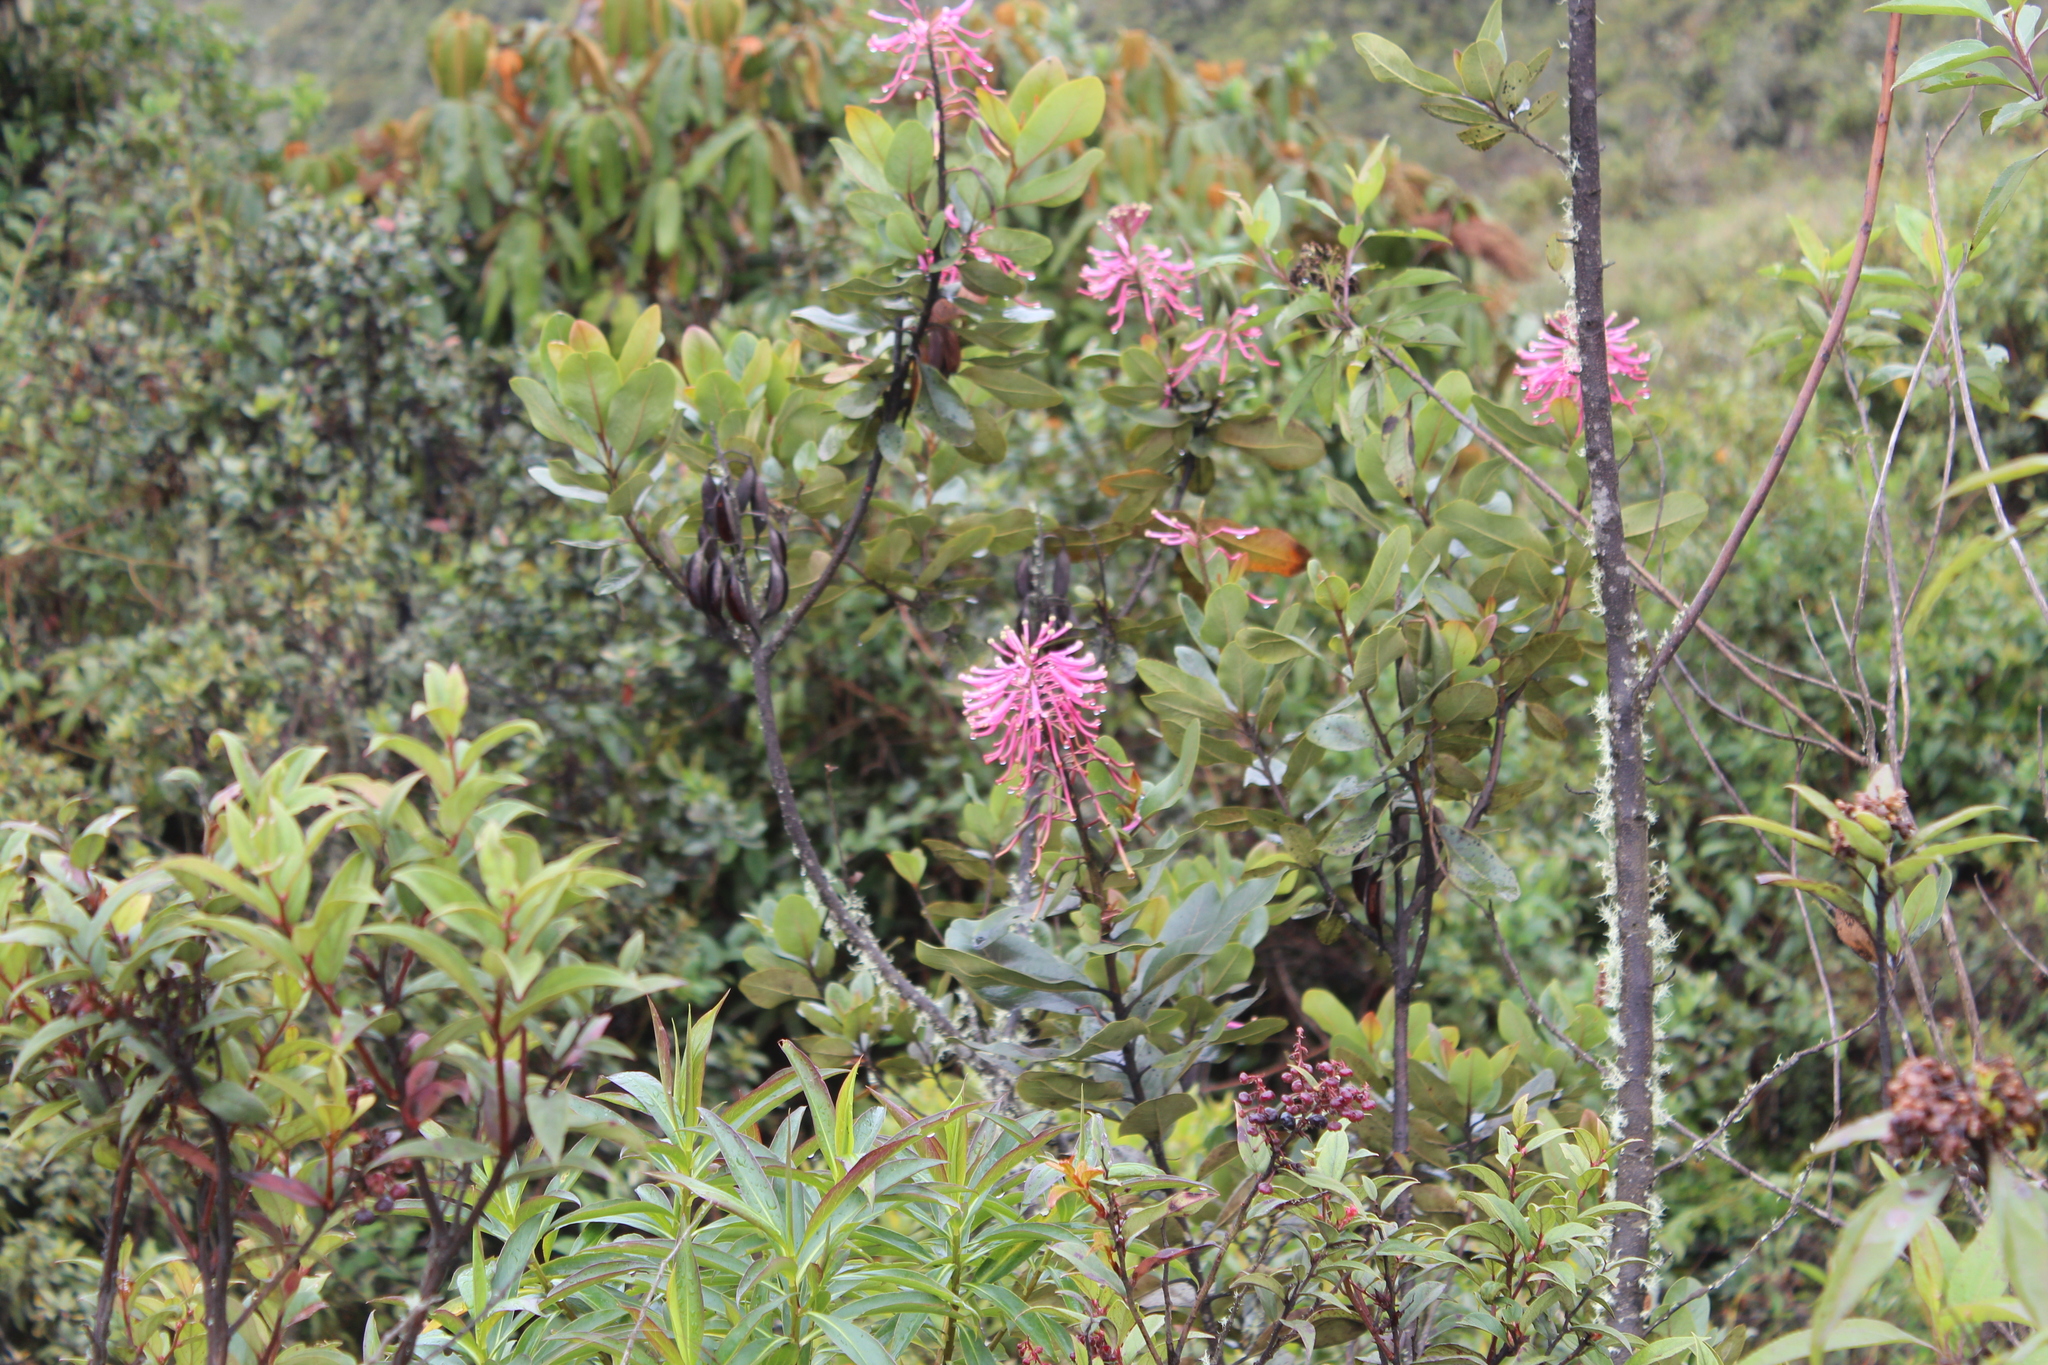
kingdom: Plantae
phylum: Tracheophyta
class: Magnoliopsida
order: Proteales
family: Proteaceae
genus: Oreocallis
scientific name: Oreocallis grandiflora
